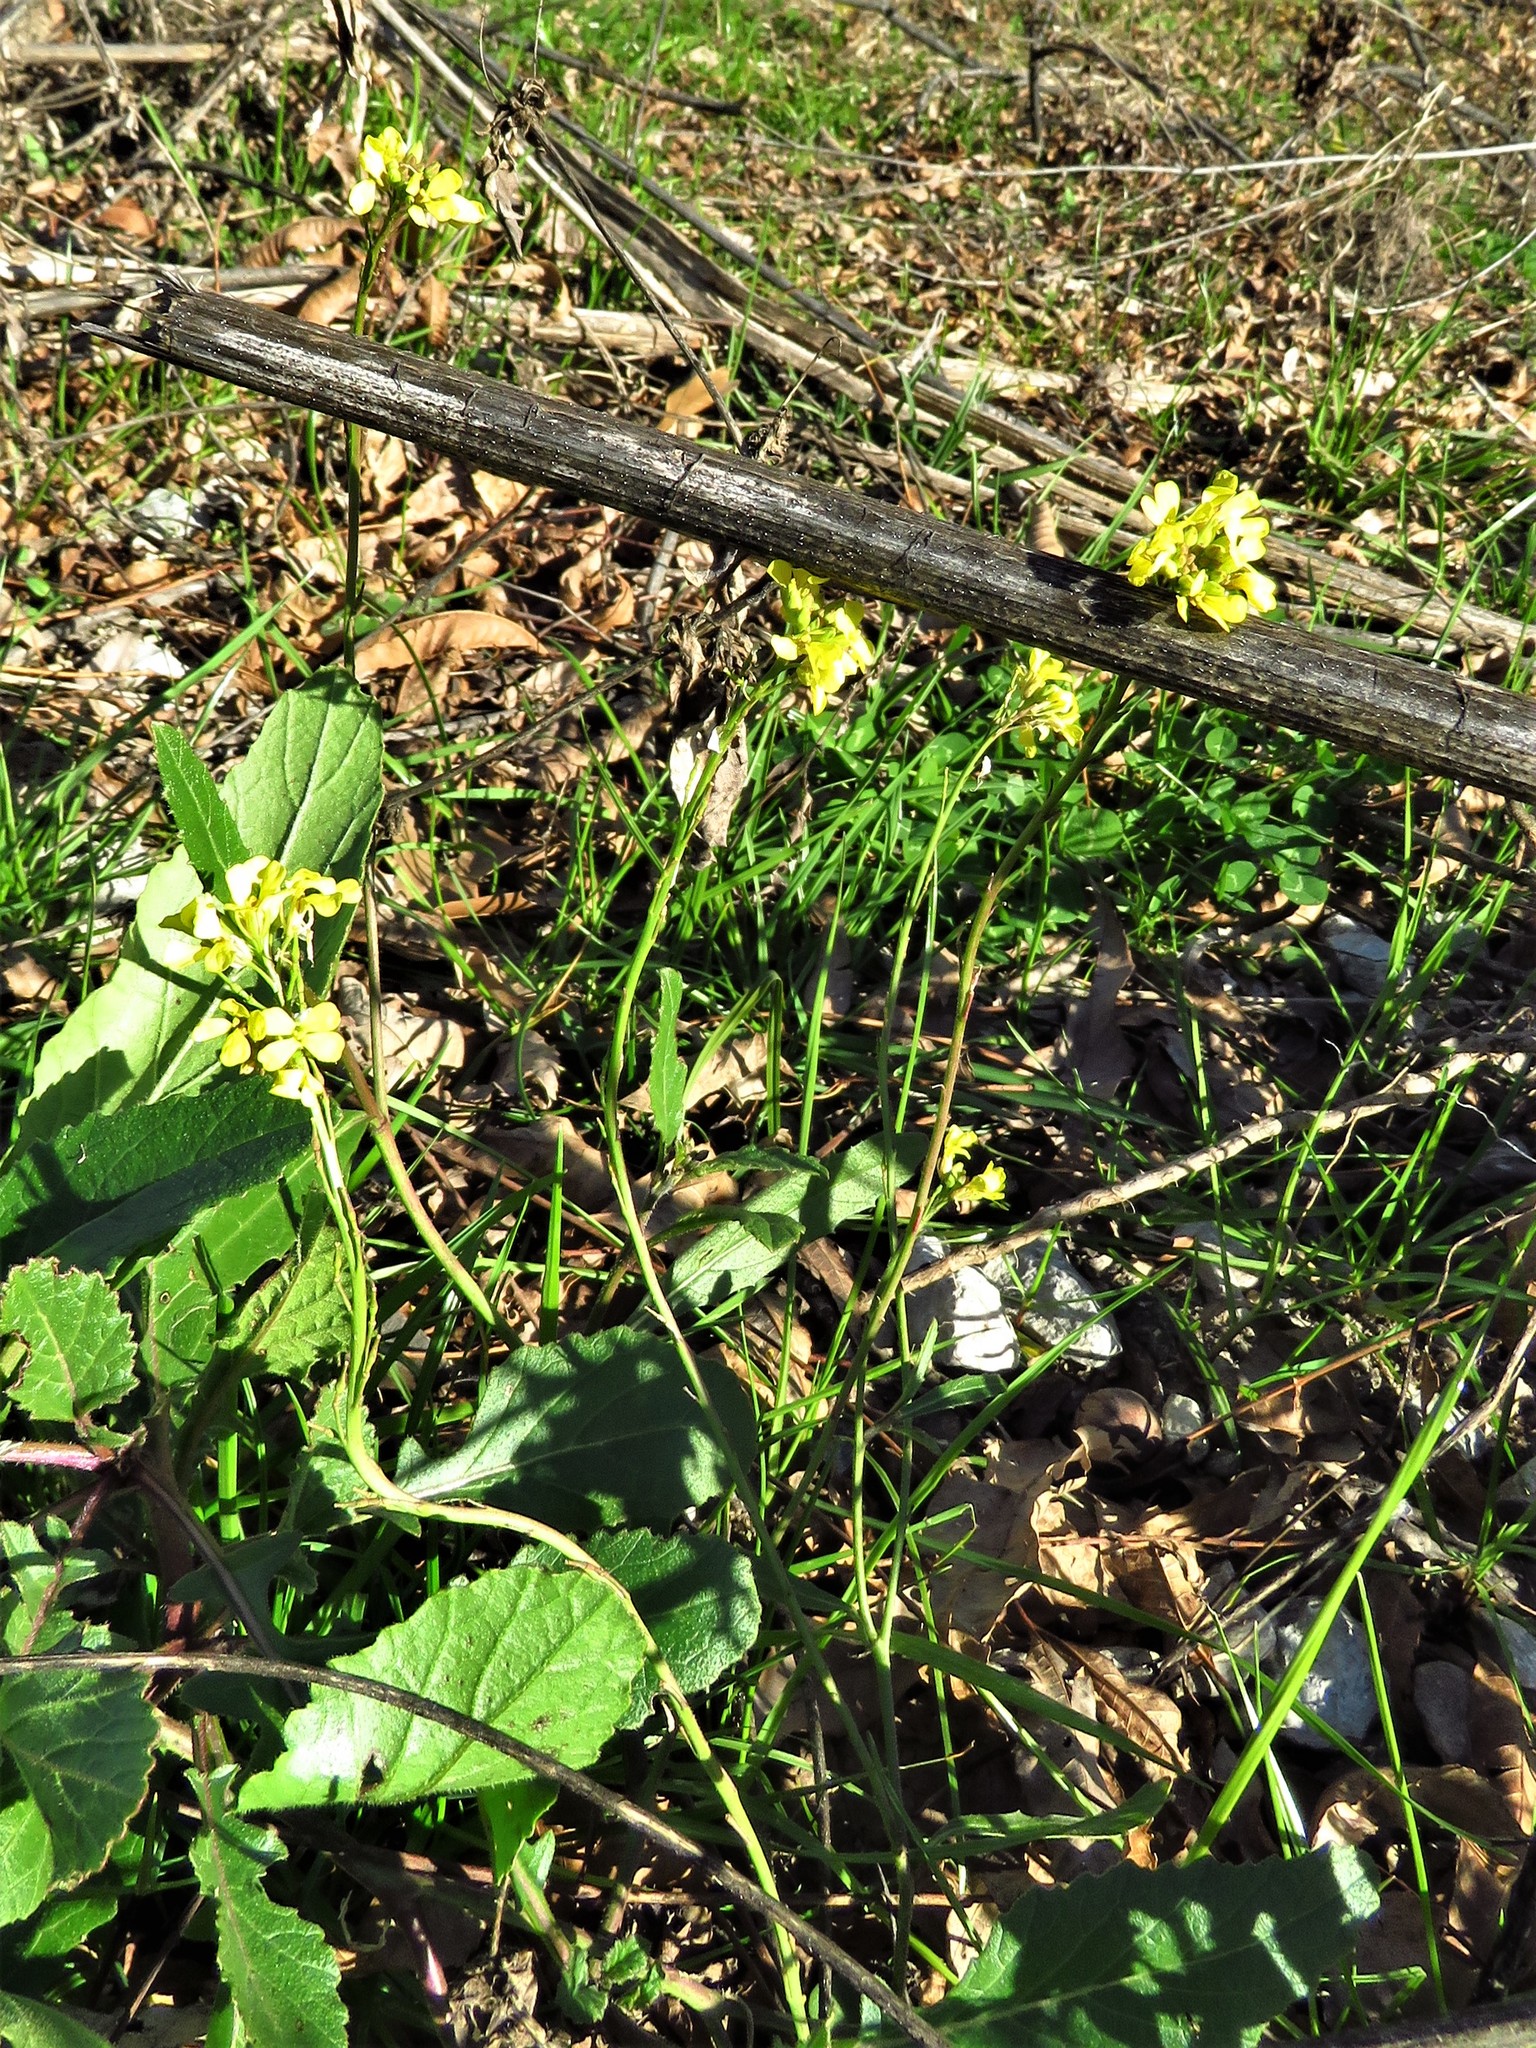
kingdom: Plantae
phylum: Tracheophyta
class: Magnoliopsida
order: Brassicales
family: Brassicaceae
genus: Rapistrum
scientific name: Rapistrum rugosum
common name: Annual bastardcabbage
